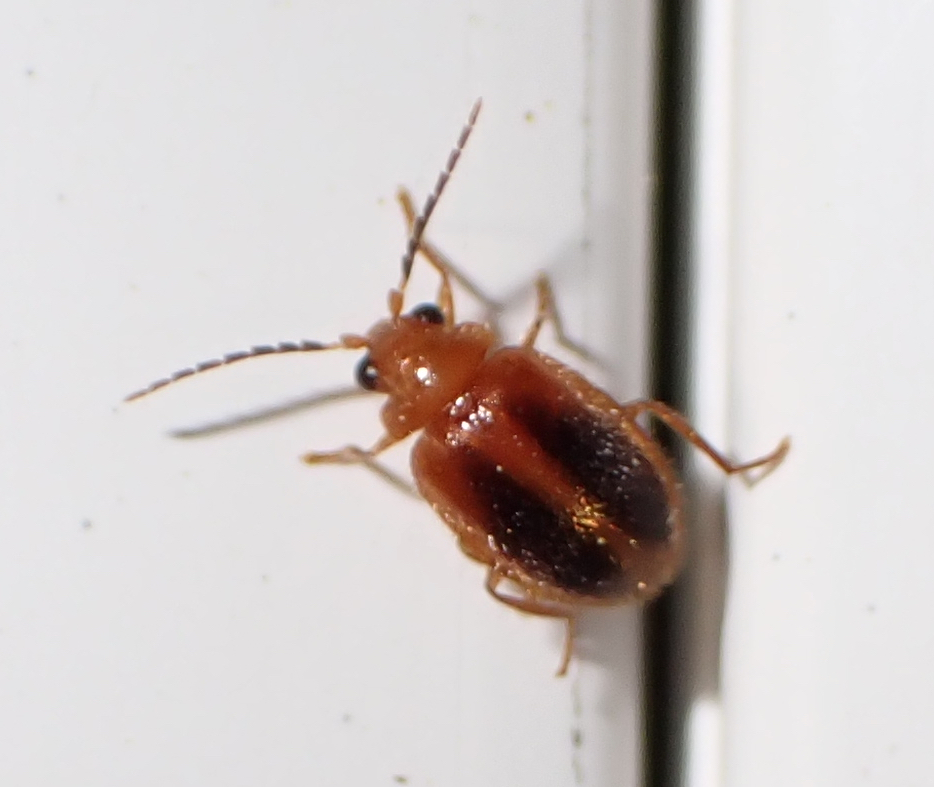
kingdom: Animalia
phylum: Arthropoda
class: Insecta
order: Coleoptera
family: Scirtidae
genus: Prionocyphon
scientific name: Prionocyphon limbatus
